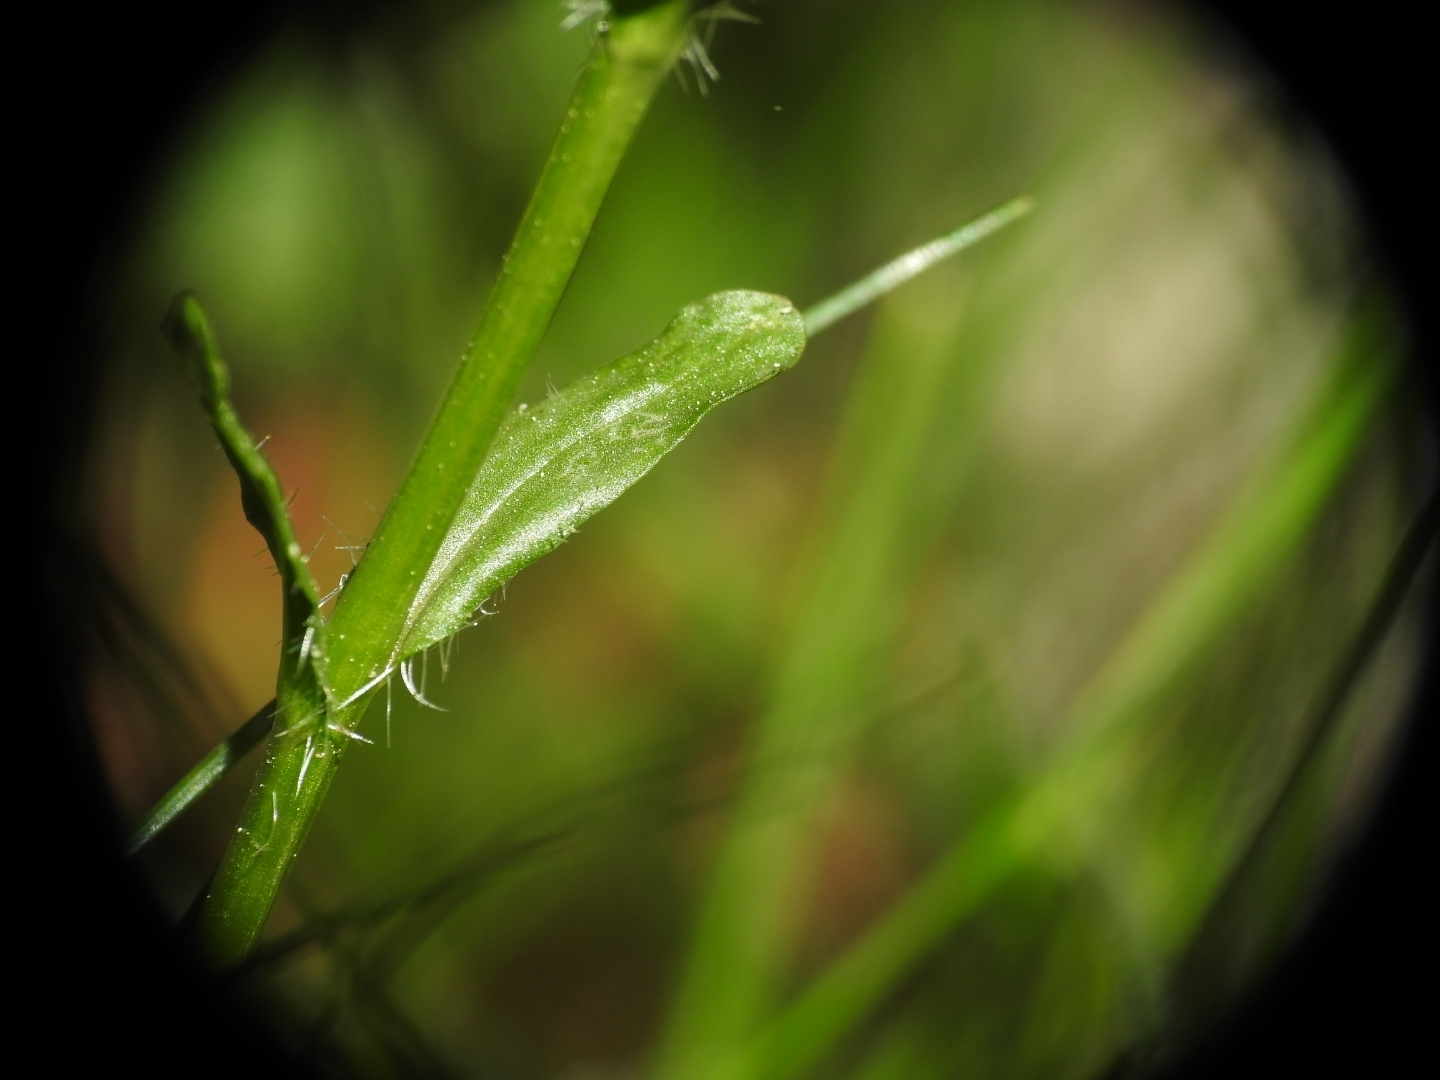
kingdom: Plantae
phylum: Tracheophyta
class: Magnoliopsida
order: Asterales
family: Campanulaceae
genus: Jasione
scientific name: Jasione laevis
